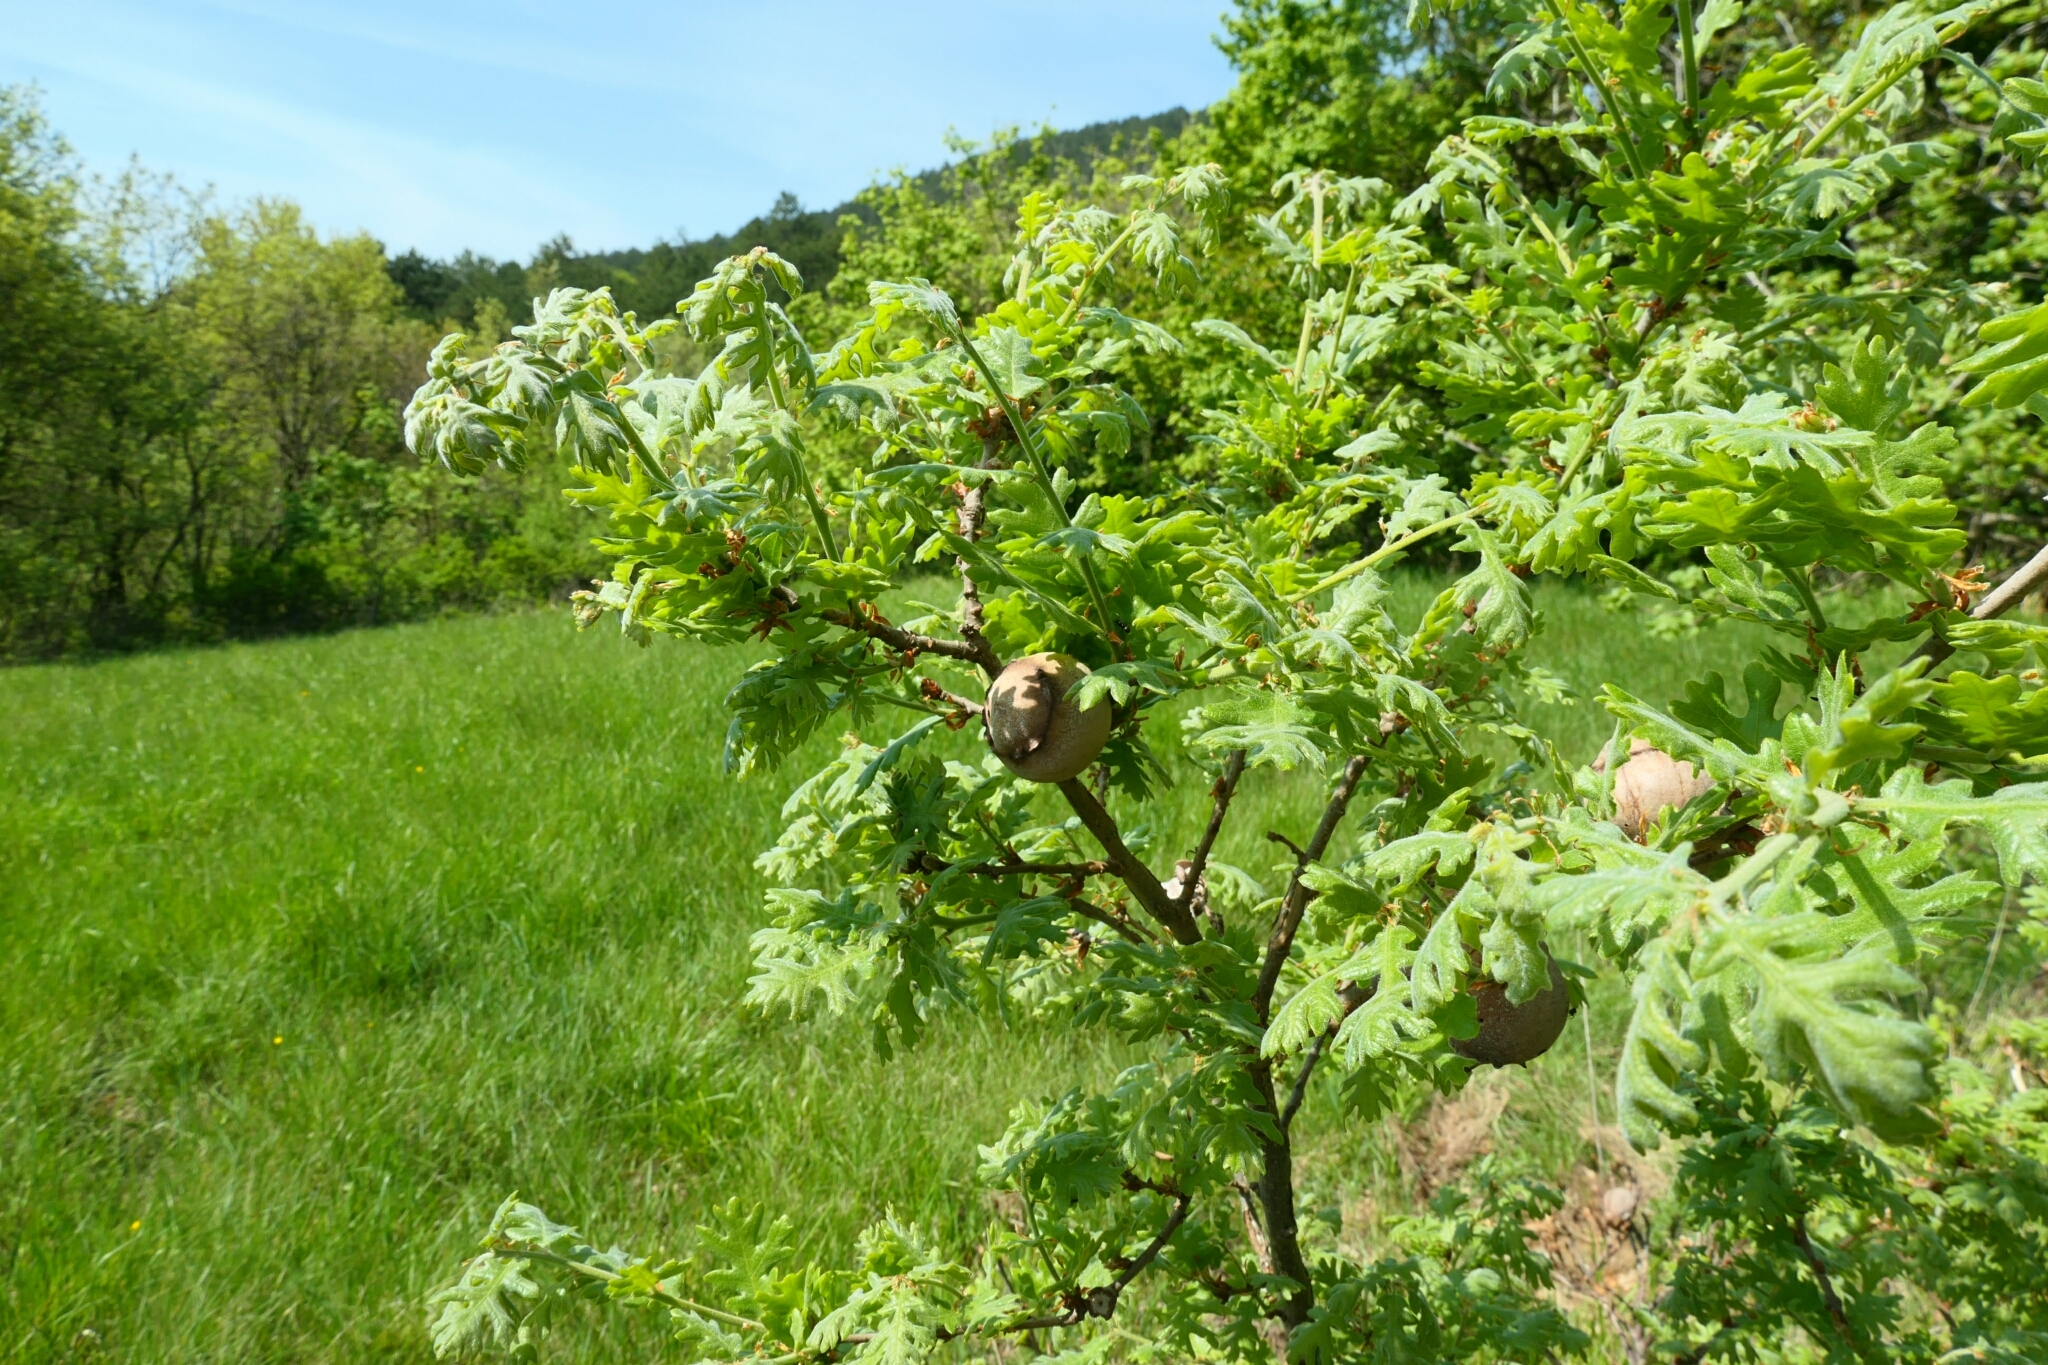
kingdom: Animalia
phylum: Arthropoda
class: Insecta
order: Hymenoptera
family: Cynipidae
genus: Andricus
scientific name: Andricus quercustozae
